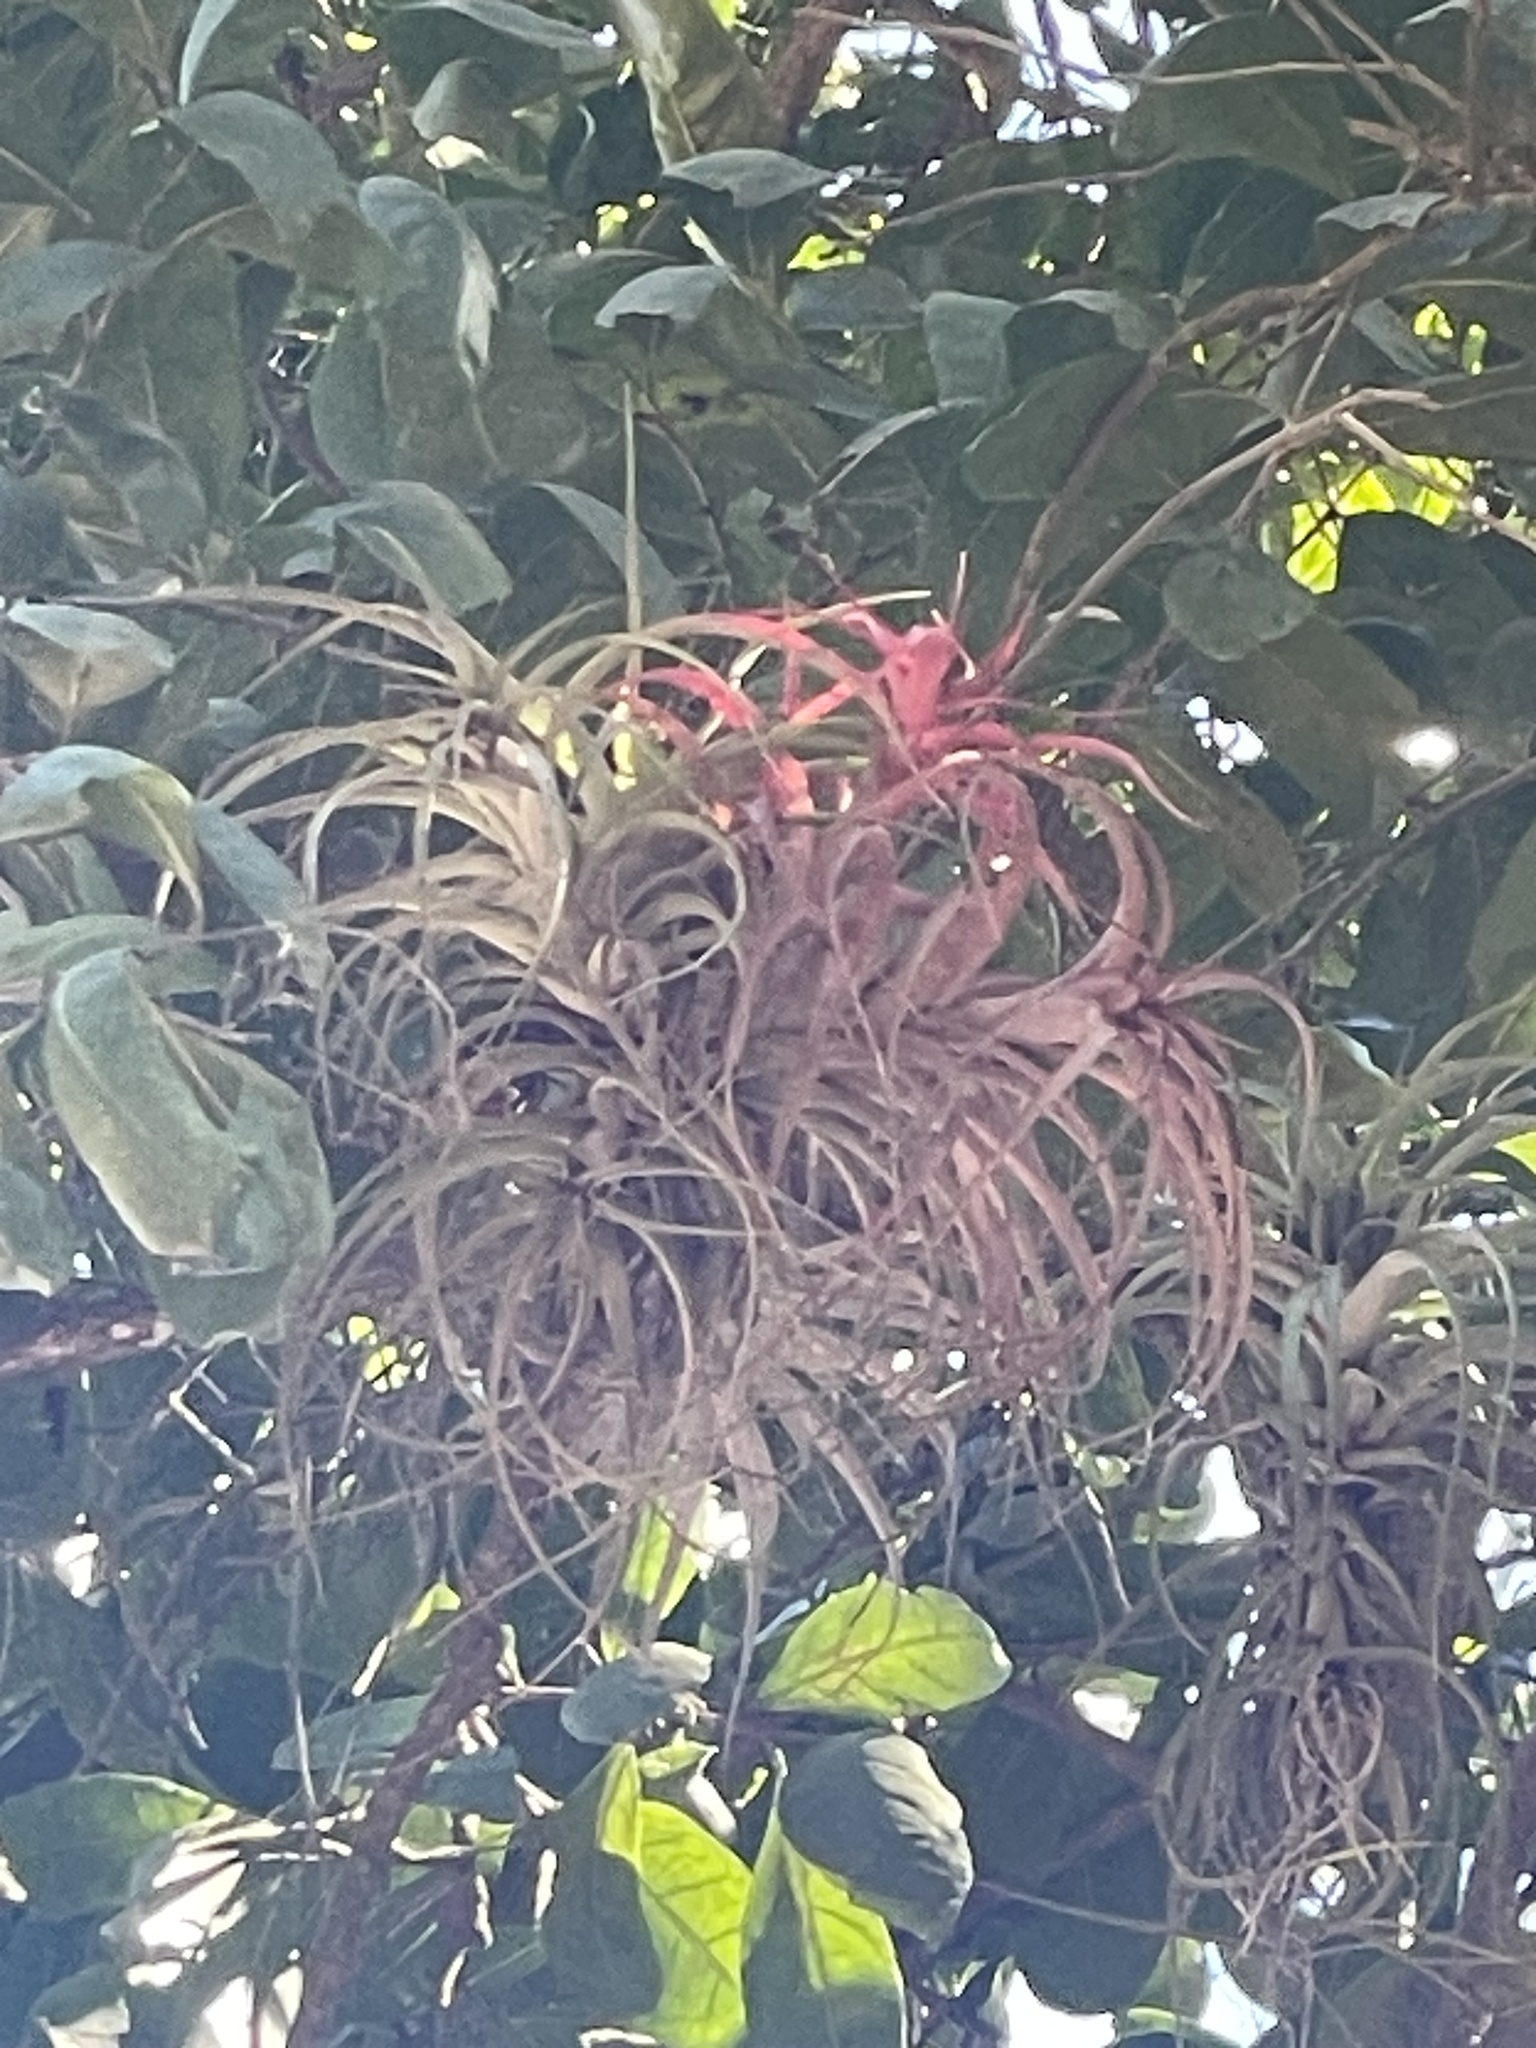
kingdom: Plantae
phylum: Tracheophyta
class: Liliopsida
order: Poales
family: Bromeliaceae
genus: Tillandsia
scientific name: Tillandsia brachycaulos
